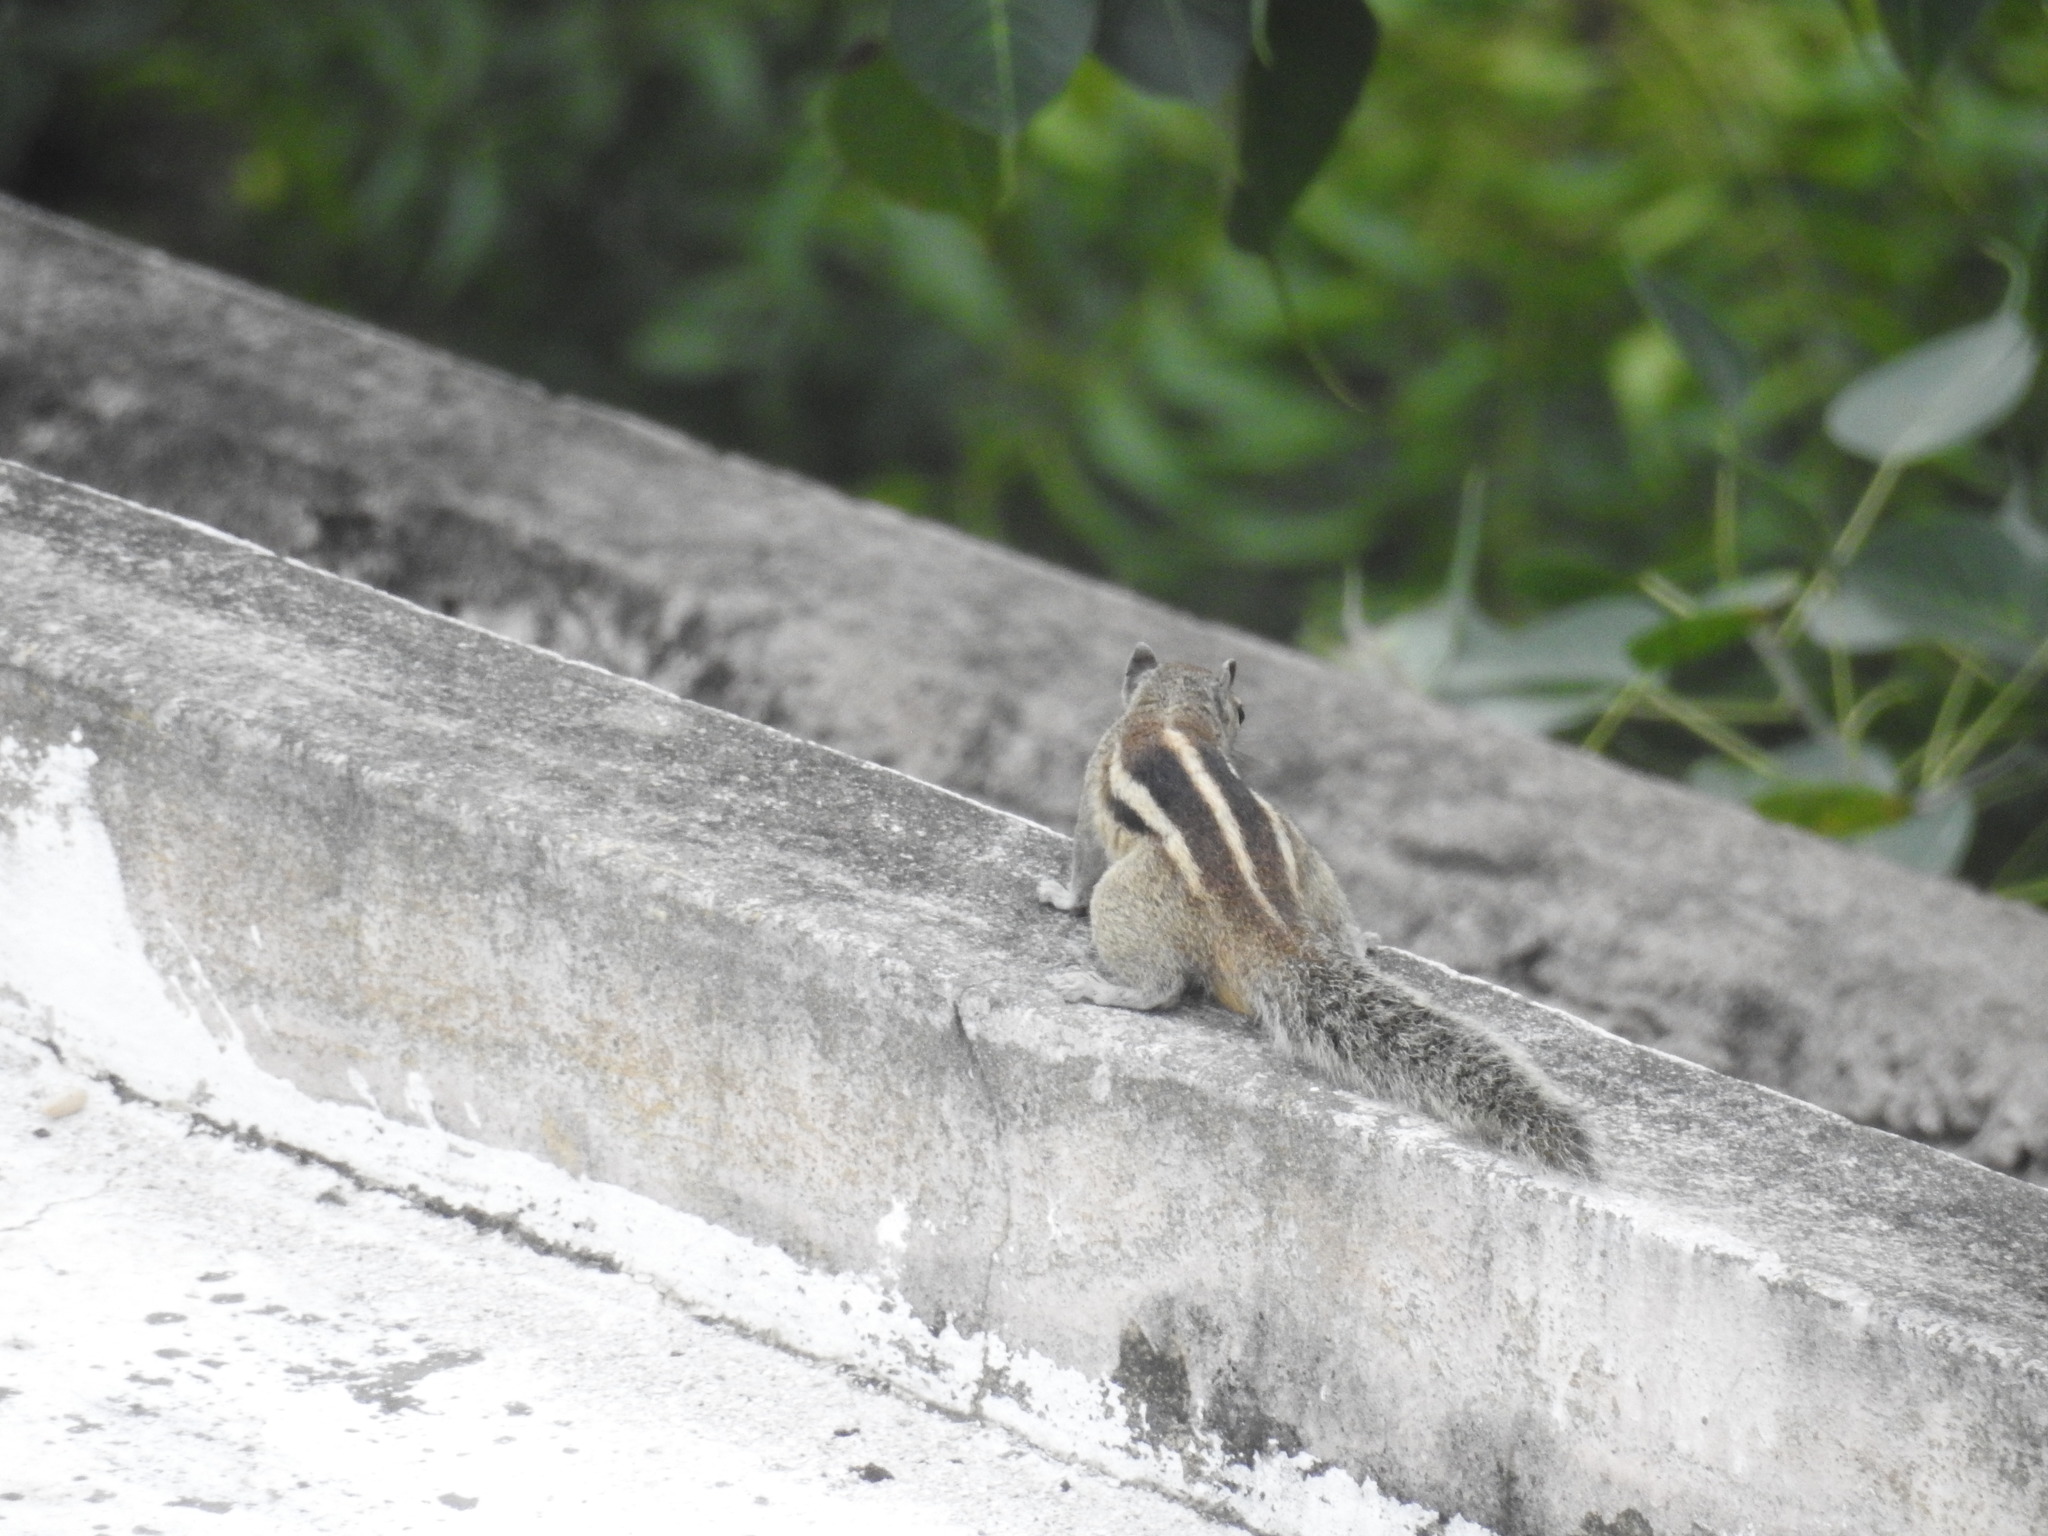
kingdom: Animalia
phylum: Chordata
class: Mammalia
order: Rodentia
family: Sciuridae
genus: Funambulus
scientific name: Funambulus palmarum
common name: Indian palm squirrel
